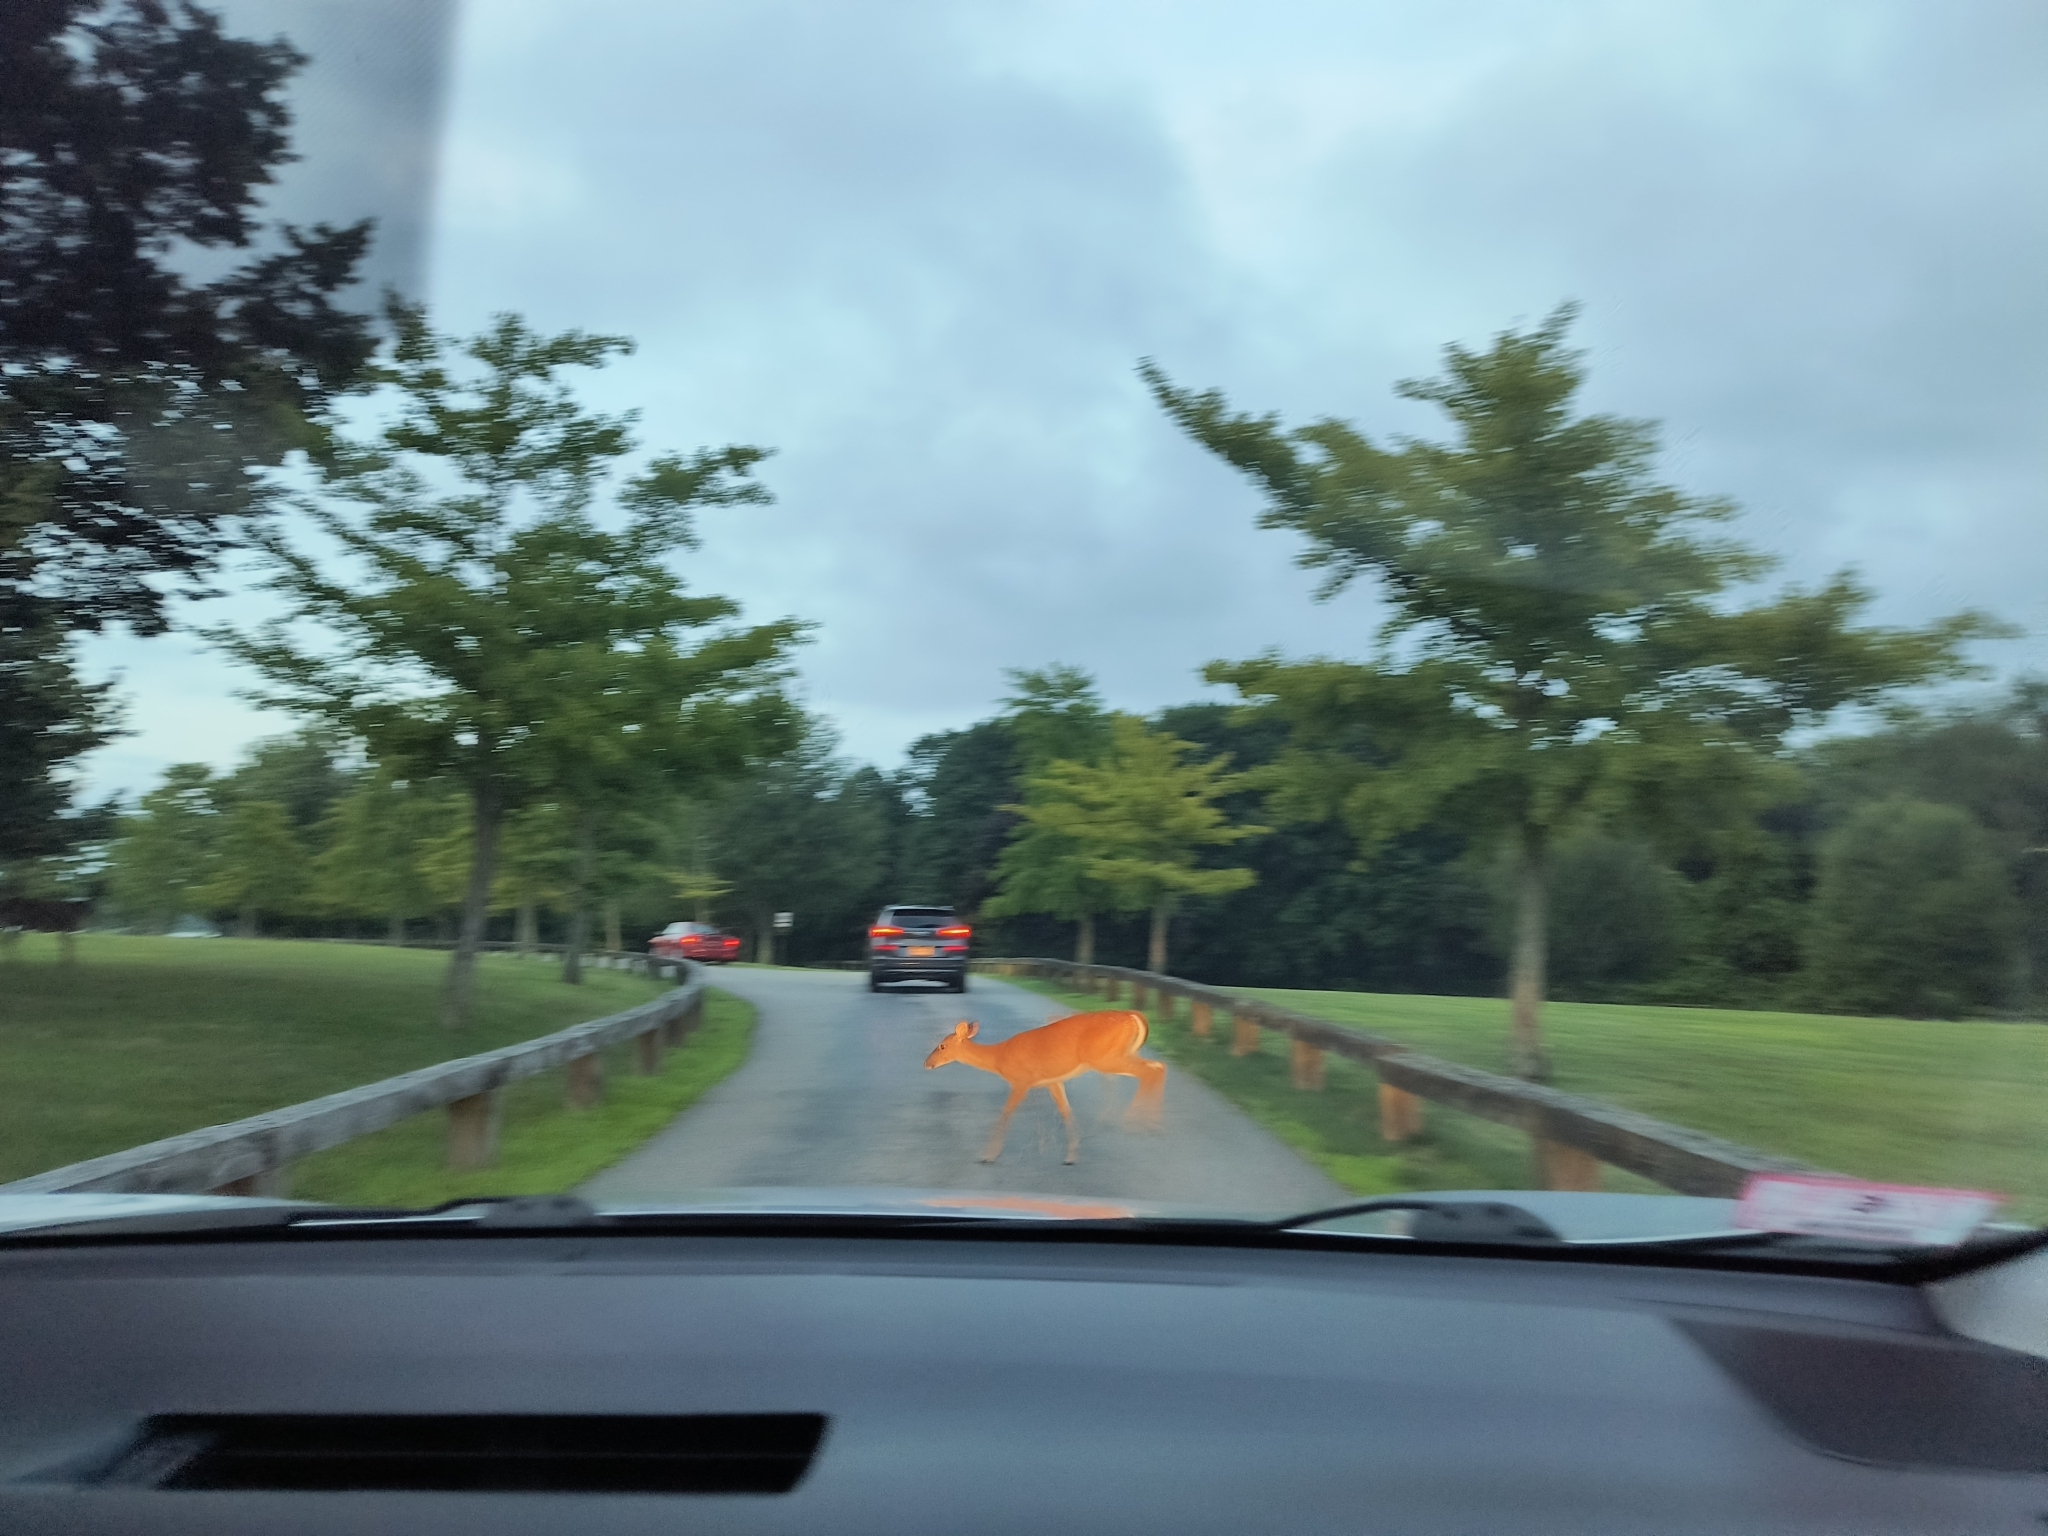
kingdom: Animalia
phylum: Chordata
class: Mammalia
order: Artiodactyla
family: Cervidae
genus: Odocoileus
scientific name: Odocoileus virginianus
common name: White-tailed deer
